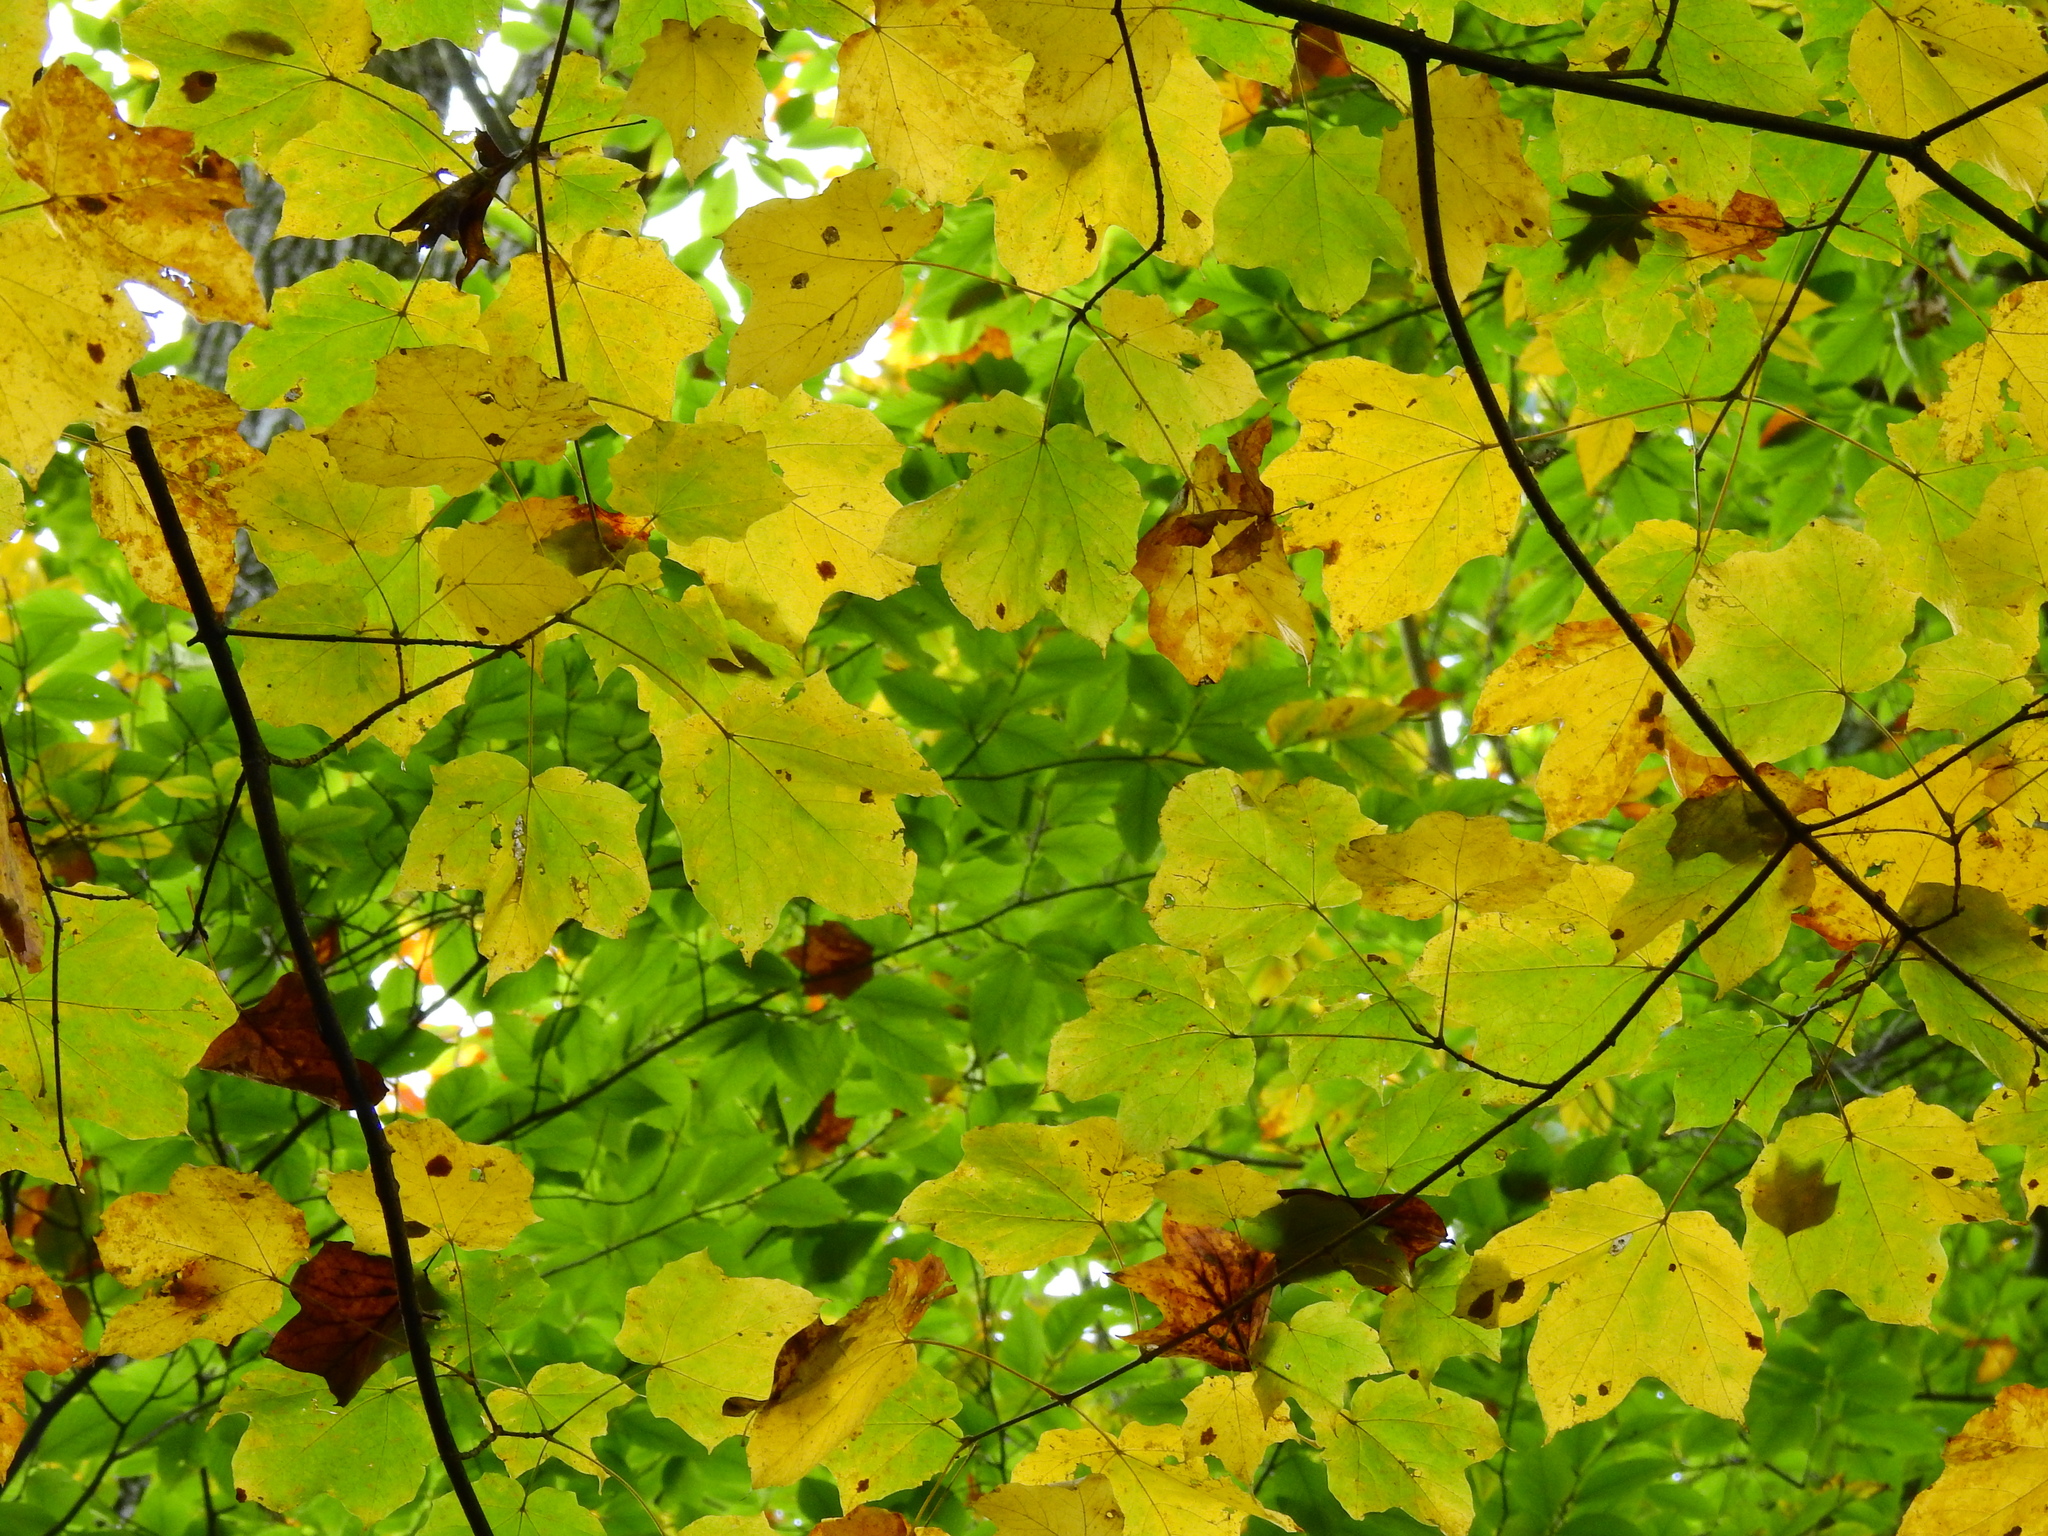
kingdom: Plantae
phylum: Tracheophyta
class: Magnoliopsida
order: Sapindales
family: Sapindaceae
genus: Acer
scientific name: Acer saccharum
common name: Sugar maple
